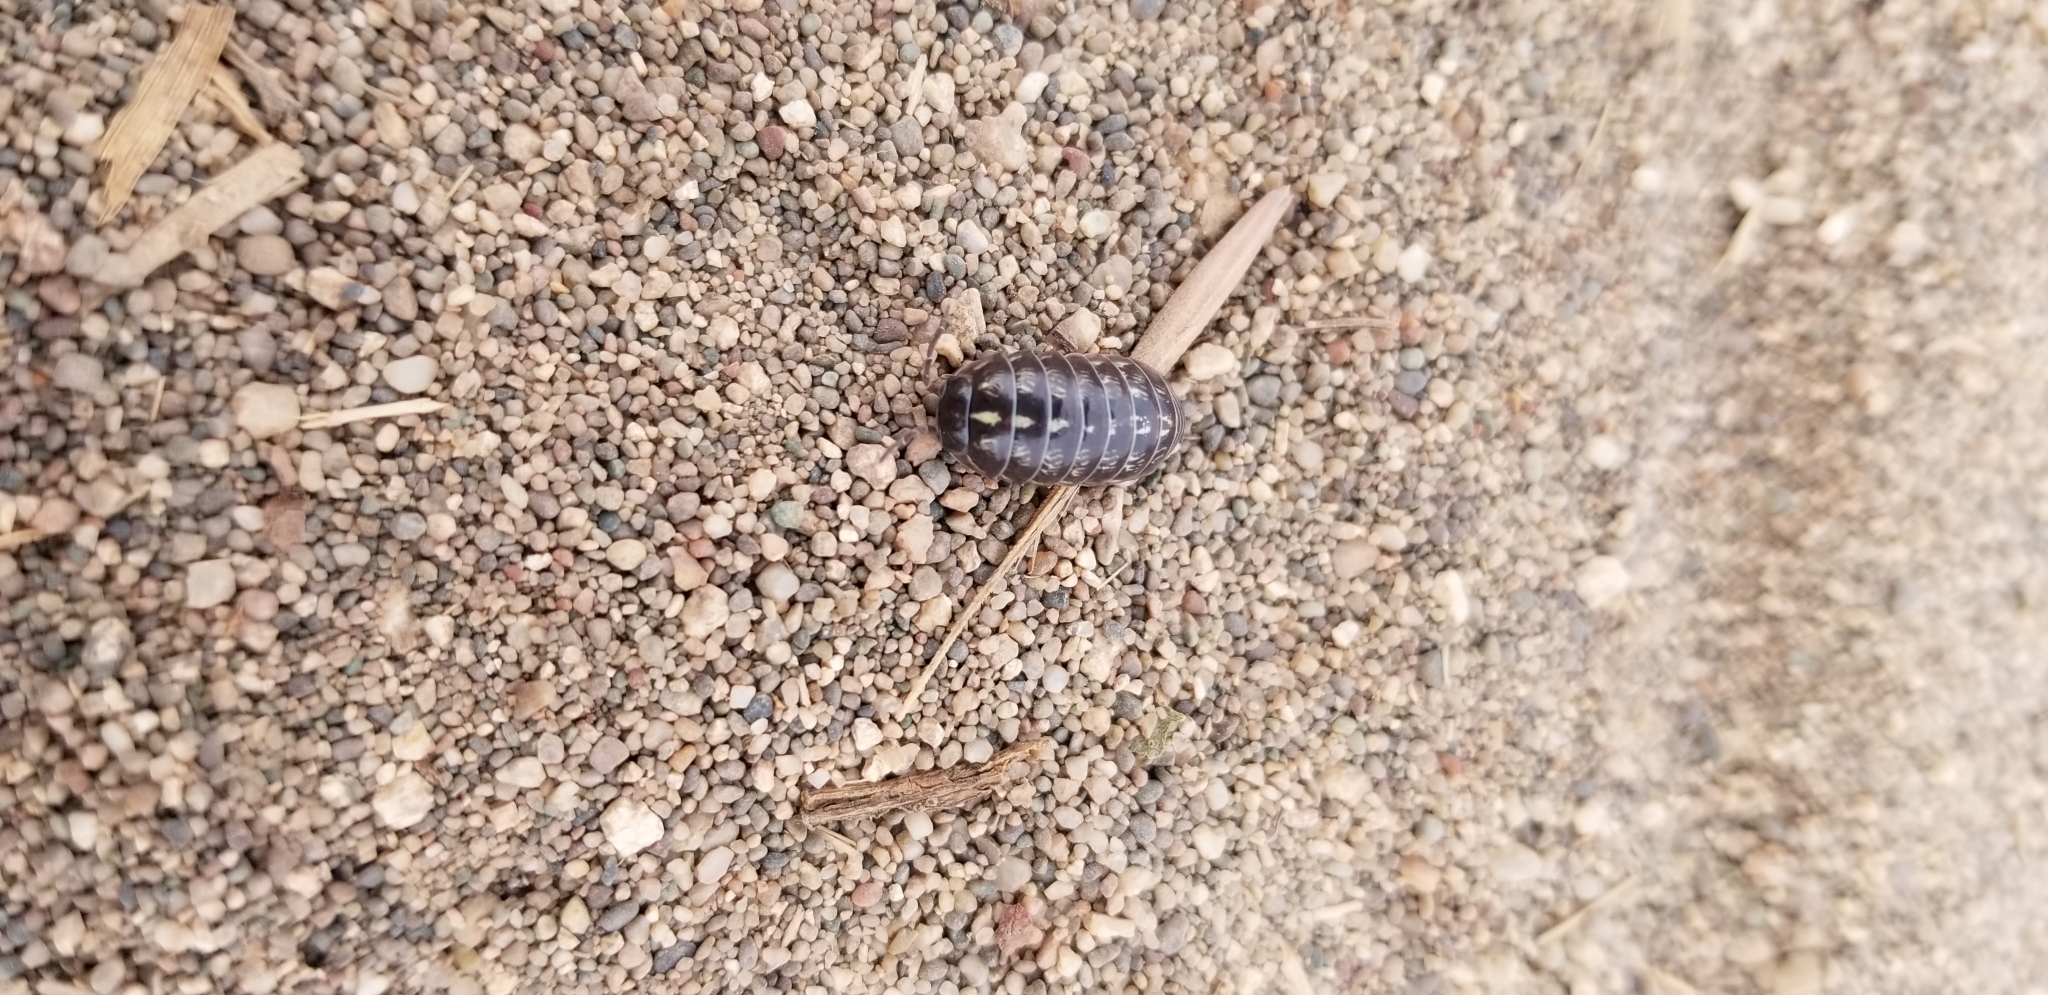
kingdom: Animalia
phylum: Arthropoda
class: Malacostraca
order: Isopoda
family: Armadillidiidae
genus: Armadillidium
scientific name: Armadillidium vulgare
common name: Common pill woodlouse
